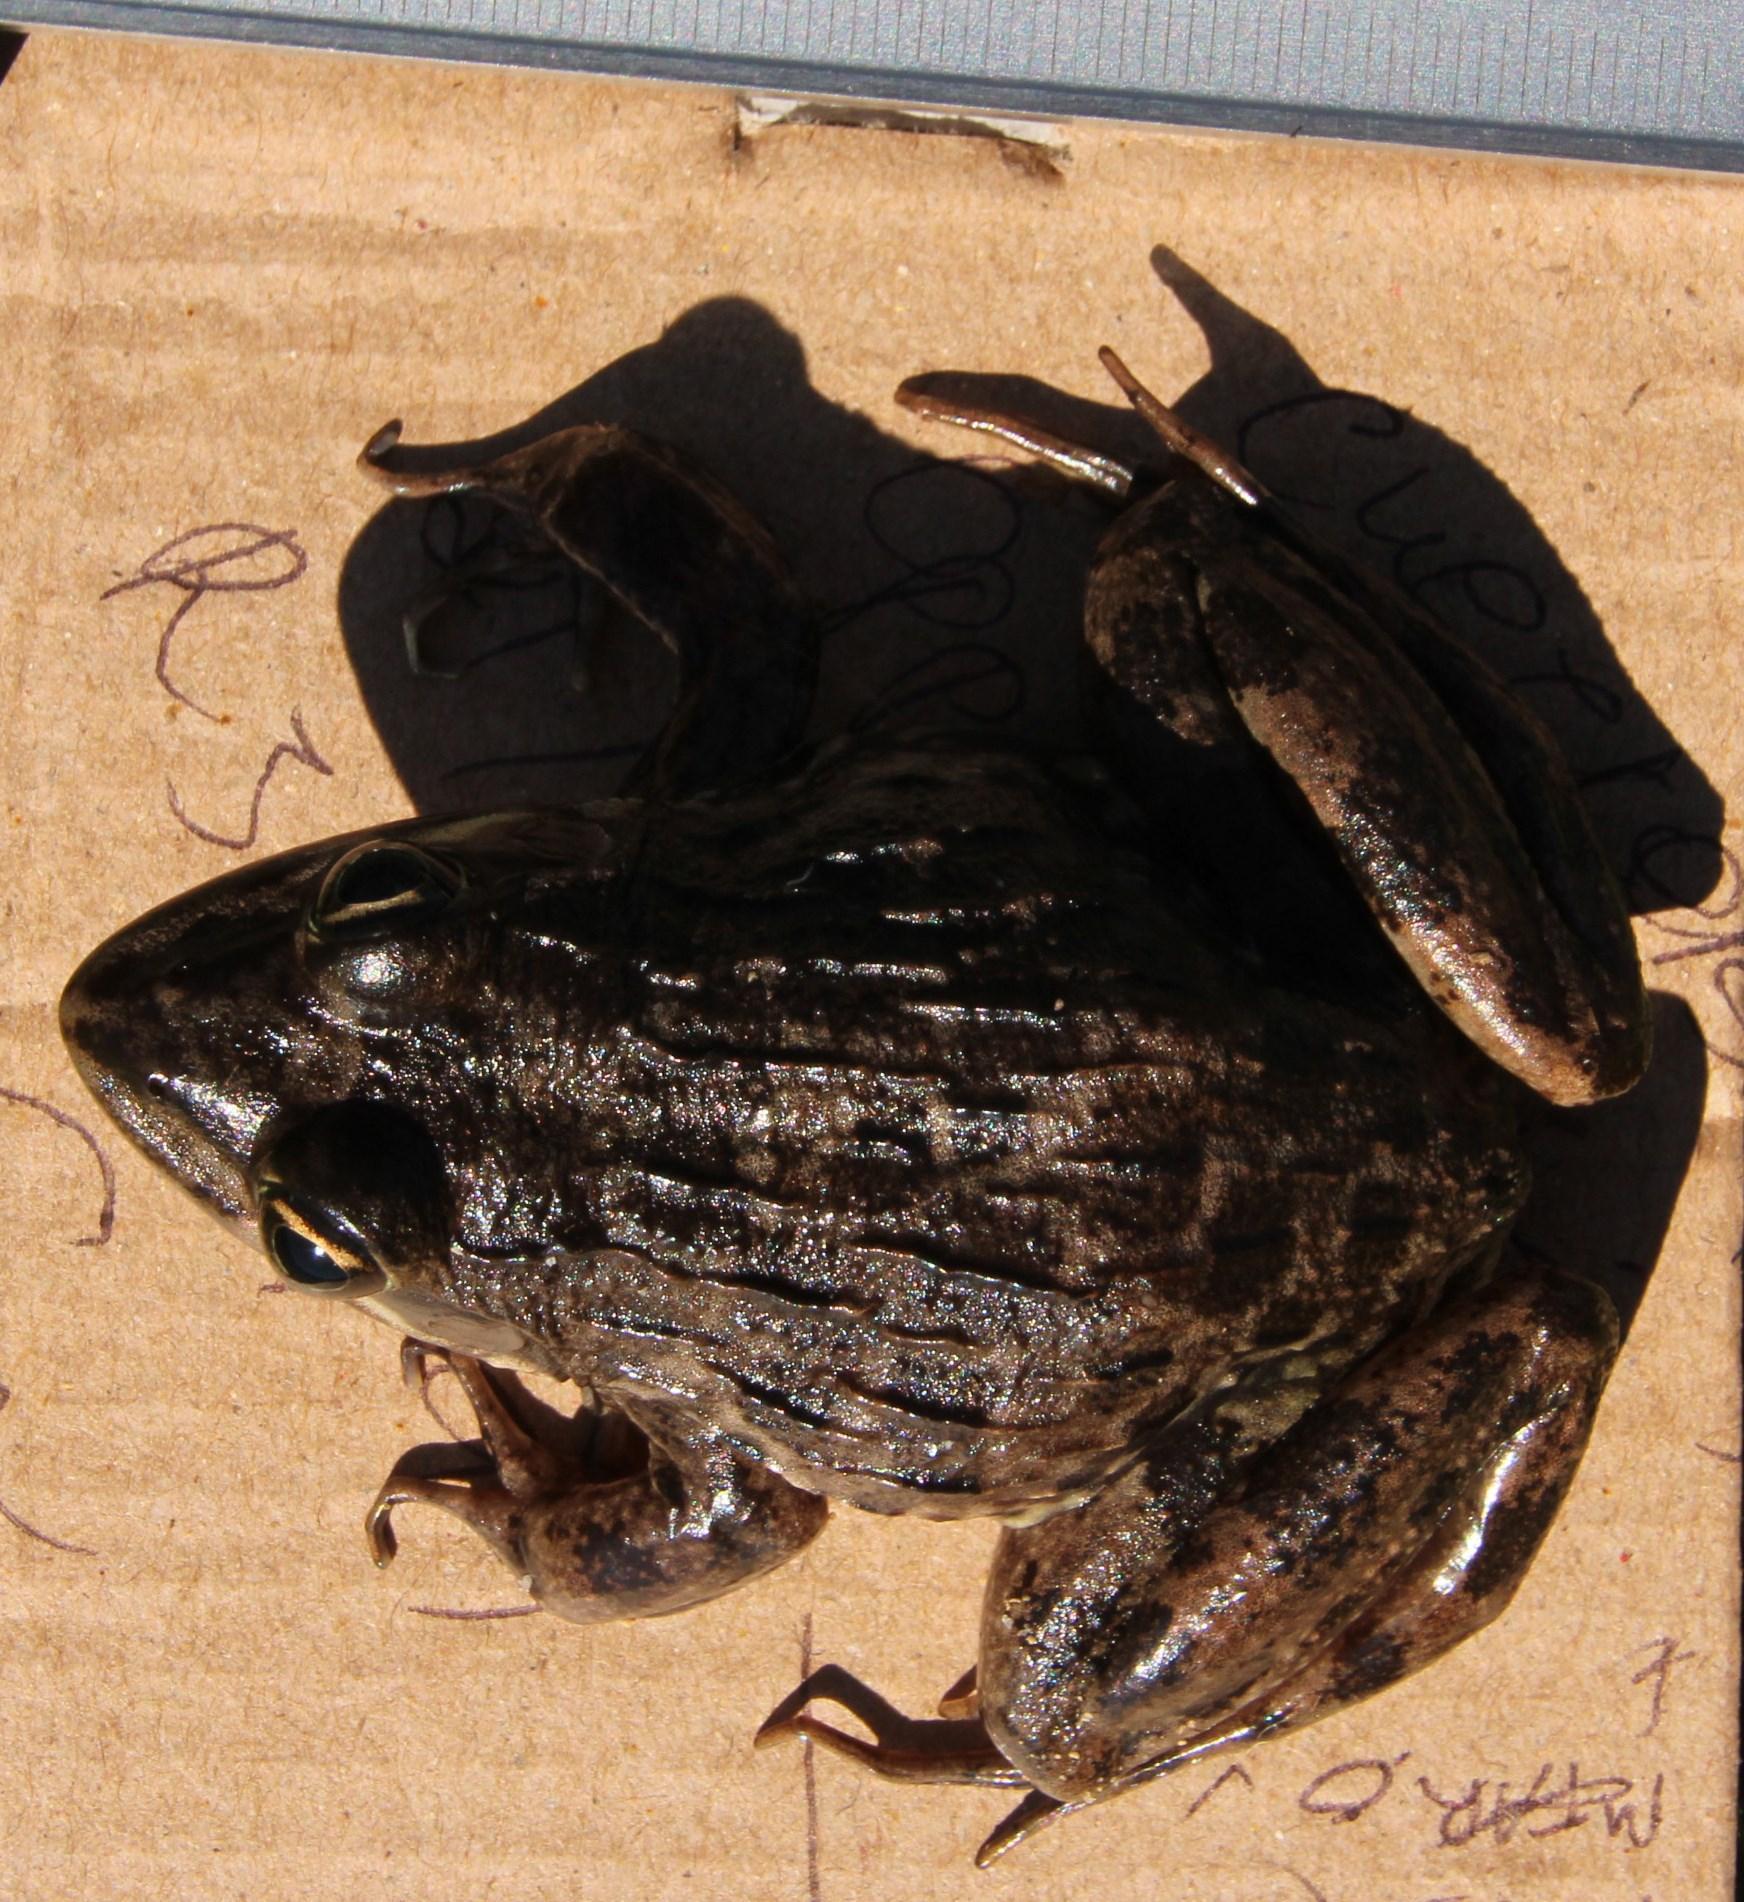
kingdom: Animalia
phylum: Chordata
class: Amphibia
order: Anura
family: Pyxicephalidae
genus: Amietia
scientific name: Amietia fuscigula
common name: Cape rana
